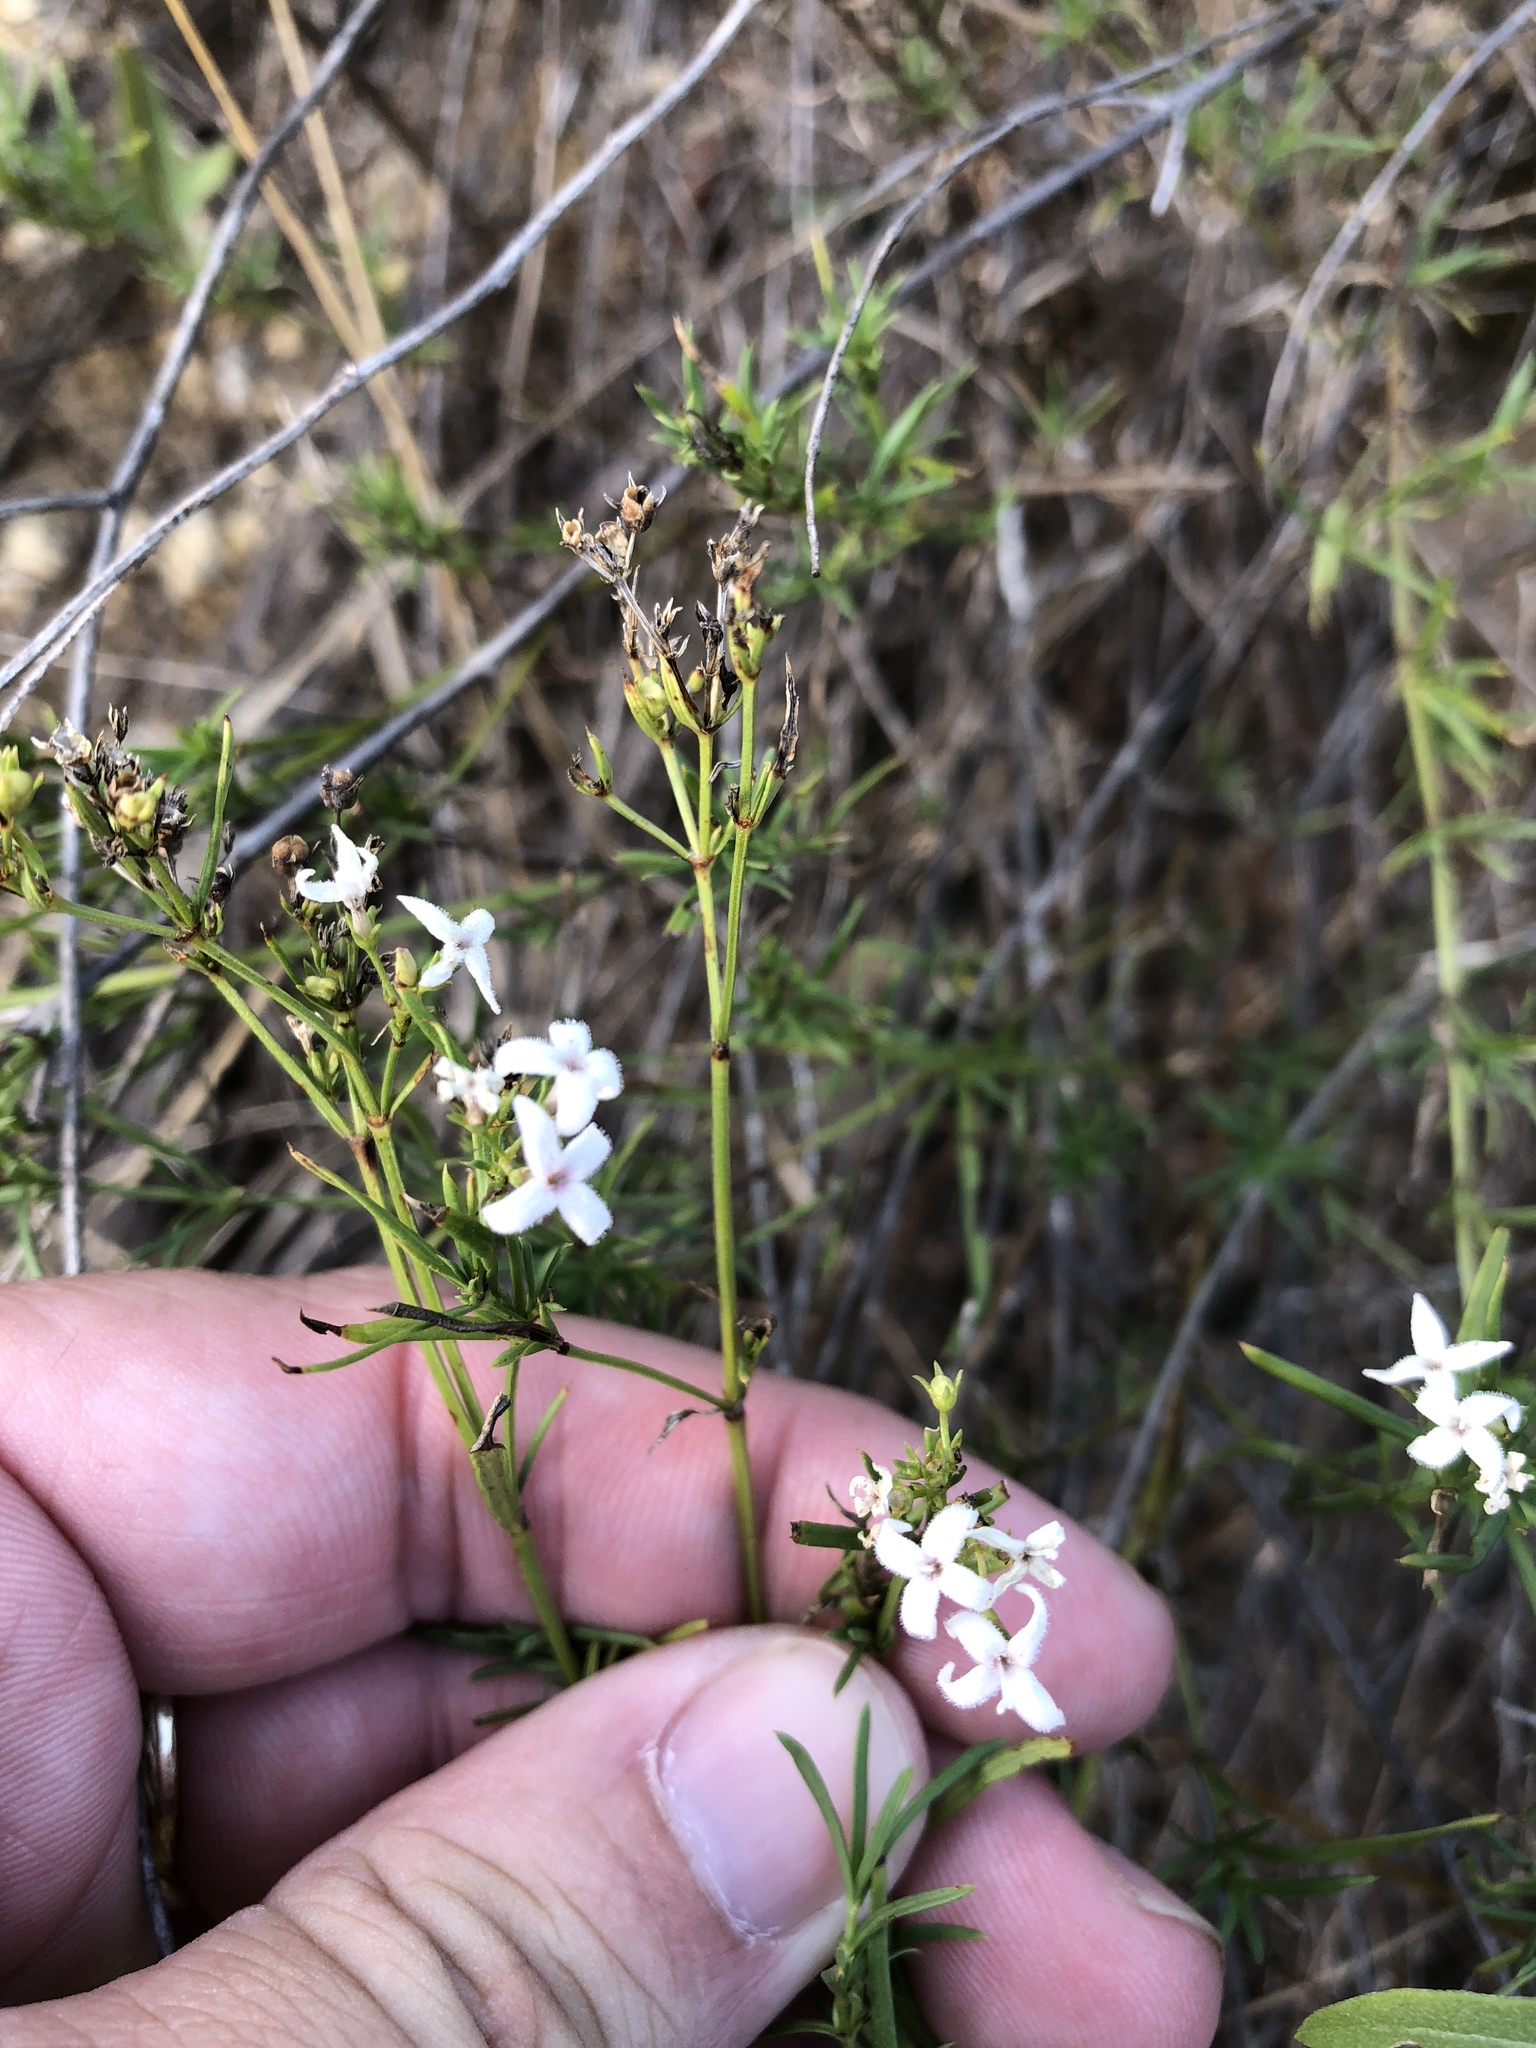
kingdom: Plantae
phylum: Tracheophyta
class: Magnoliopsida
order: Gentianales
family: Rubiaceae
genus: Stenaria
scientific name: Stenaria nigricans
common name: Diamondflowers
